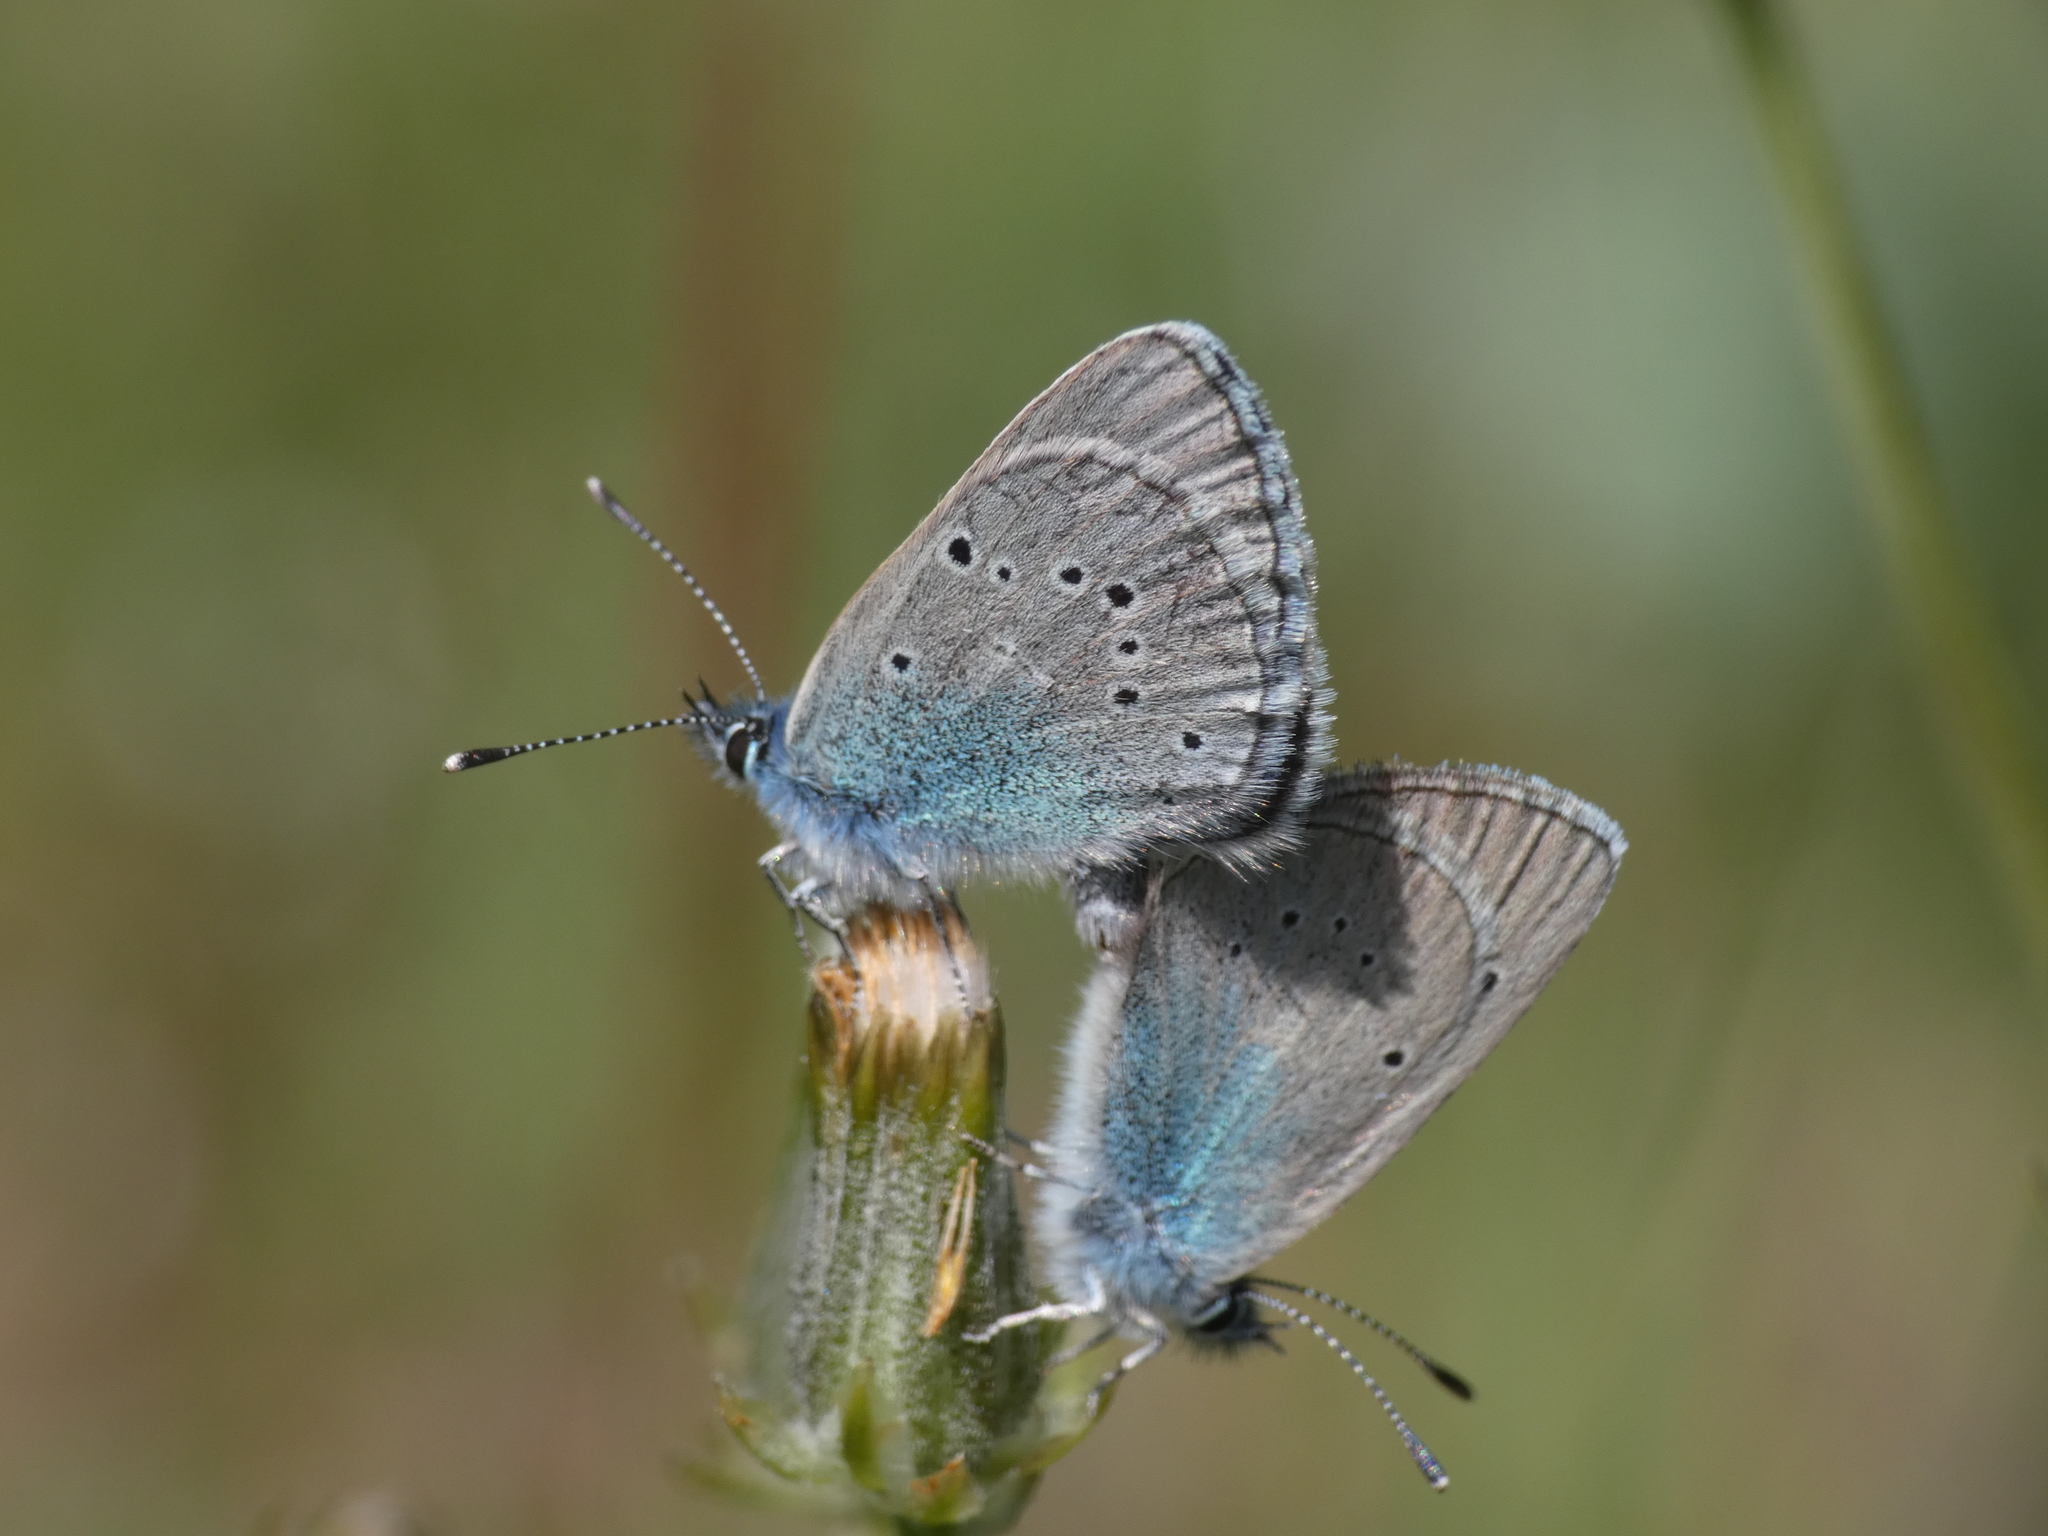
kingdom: Animalia
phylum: Arthropoda
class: Insecta
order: Lepidoptera
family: Lycaenidae
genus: Glaucopsyche
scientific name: Glaucopsyche alexis
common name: Green-underside blue
